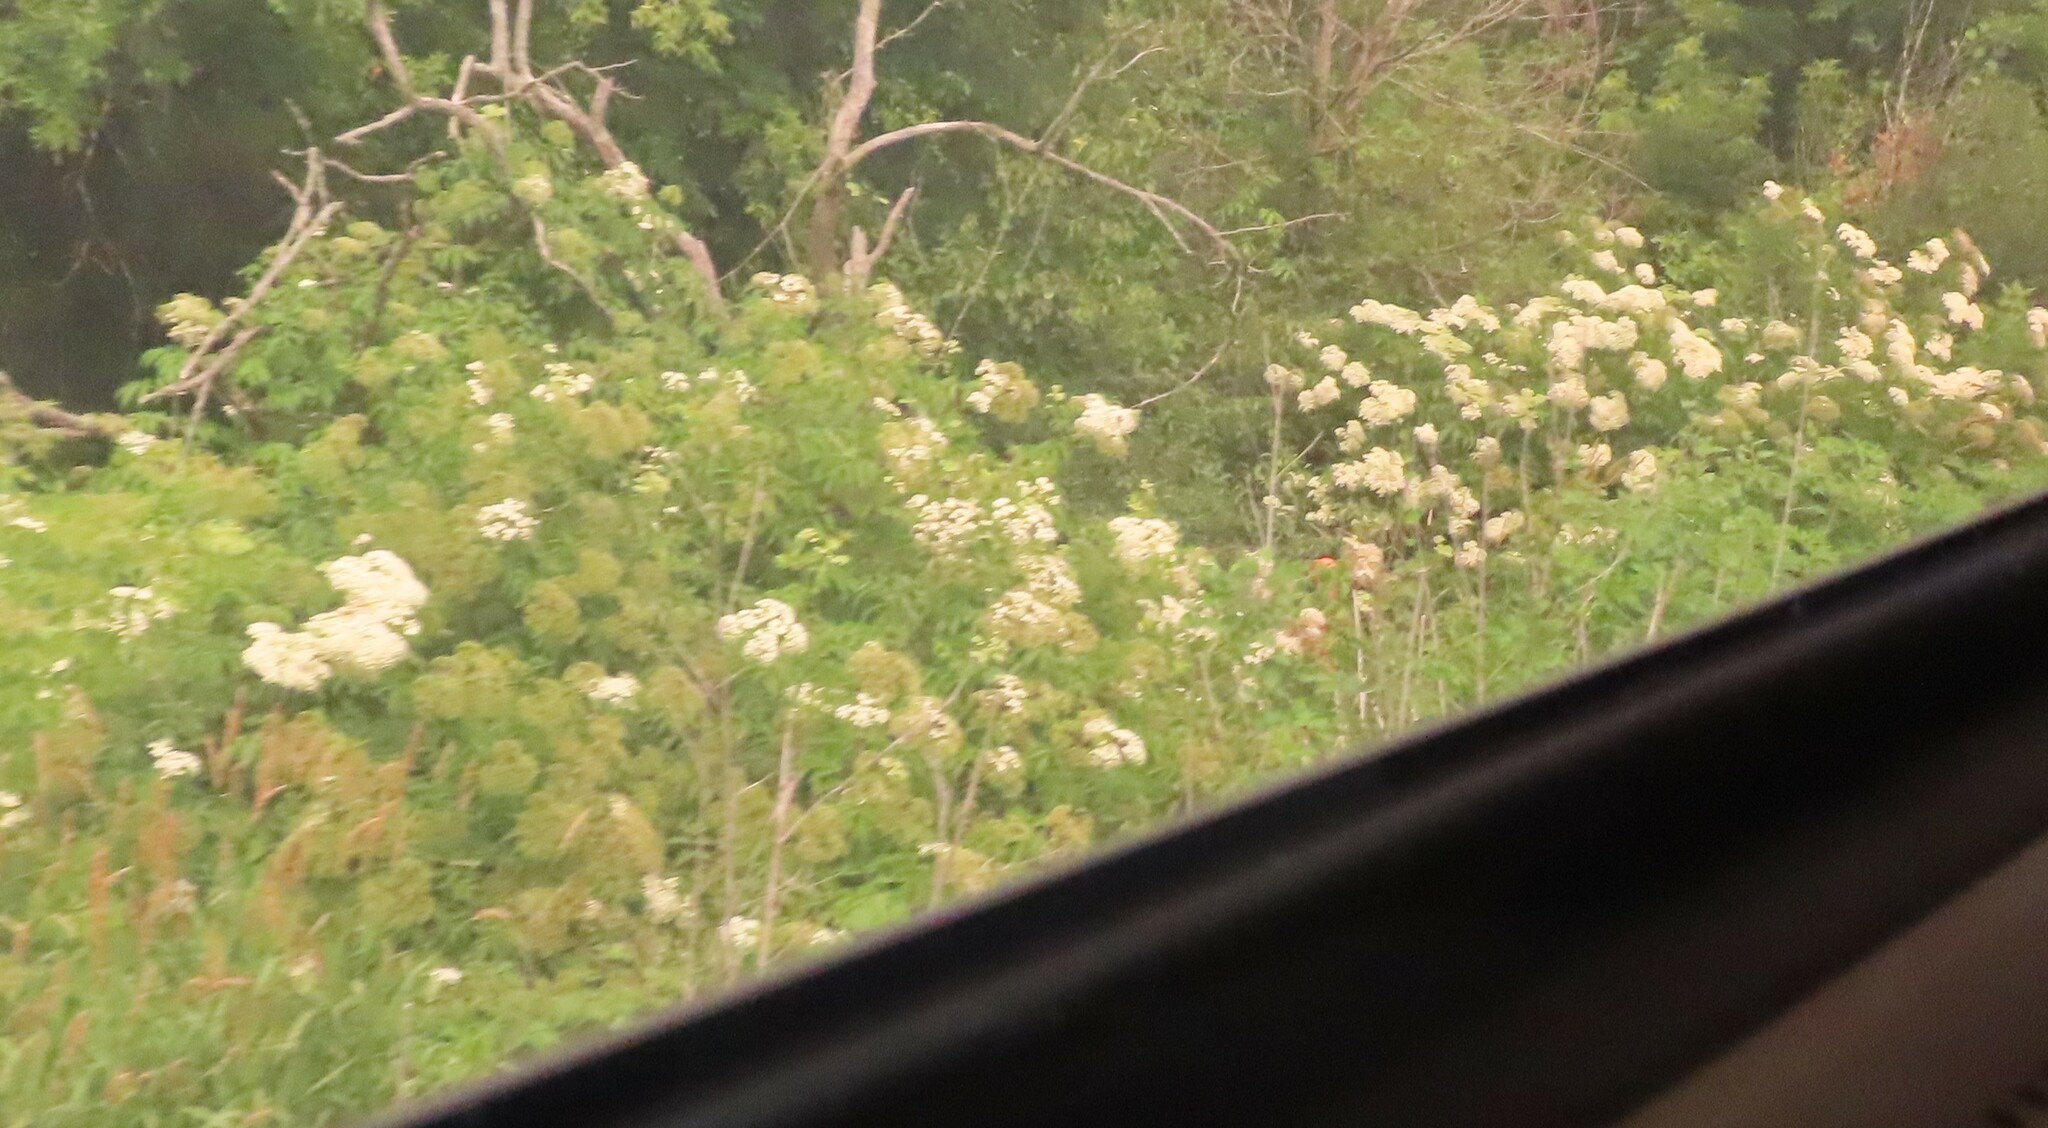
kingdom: Plantae
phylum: Tracheophyta
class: Magnoliopsida
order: Dipsacales
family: Viburnaceae
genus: Sambucus
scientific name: Sambucus canadensis
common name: American elder
